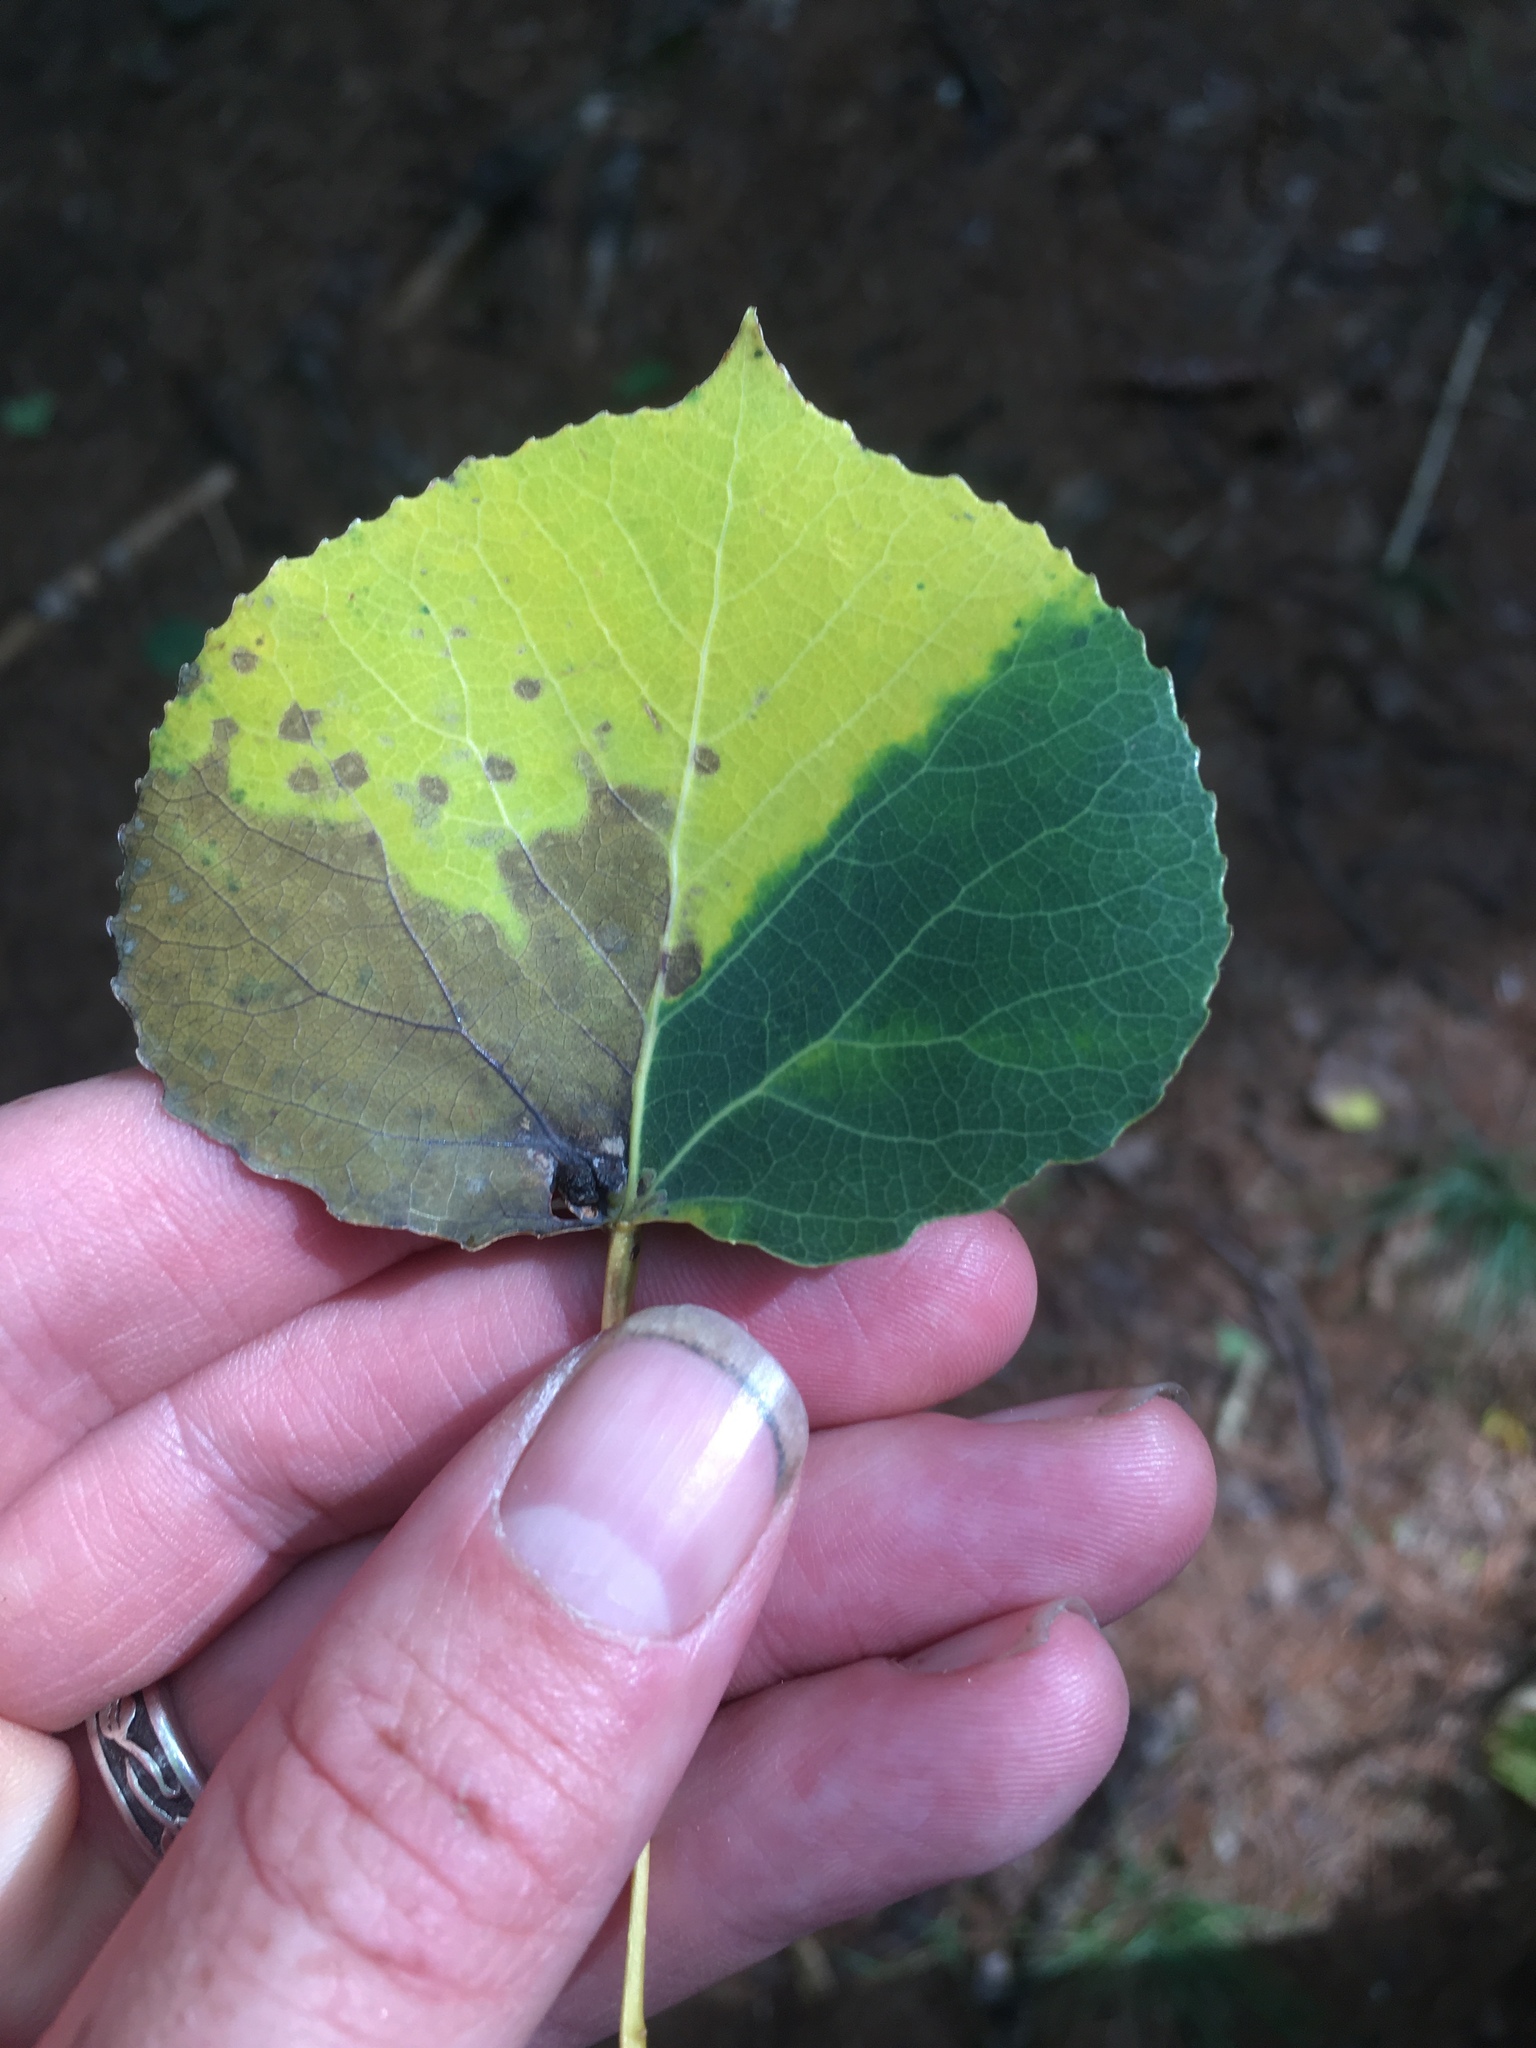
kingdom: Plantae
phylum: Tracheophyta
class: Magnoliopsida
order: Malpighiales
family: Salicaceae
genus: Populus
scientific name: Populus tremuloides
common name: Quaking aspen
